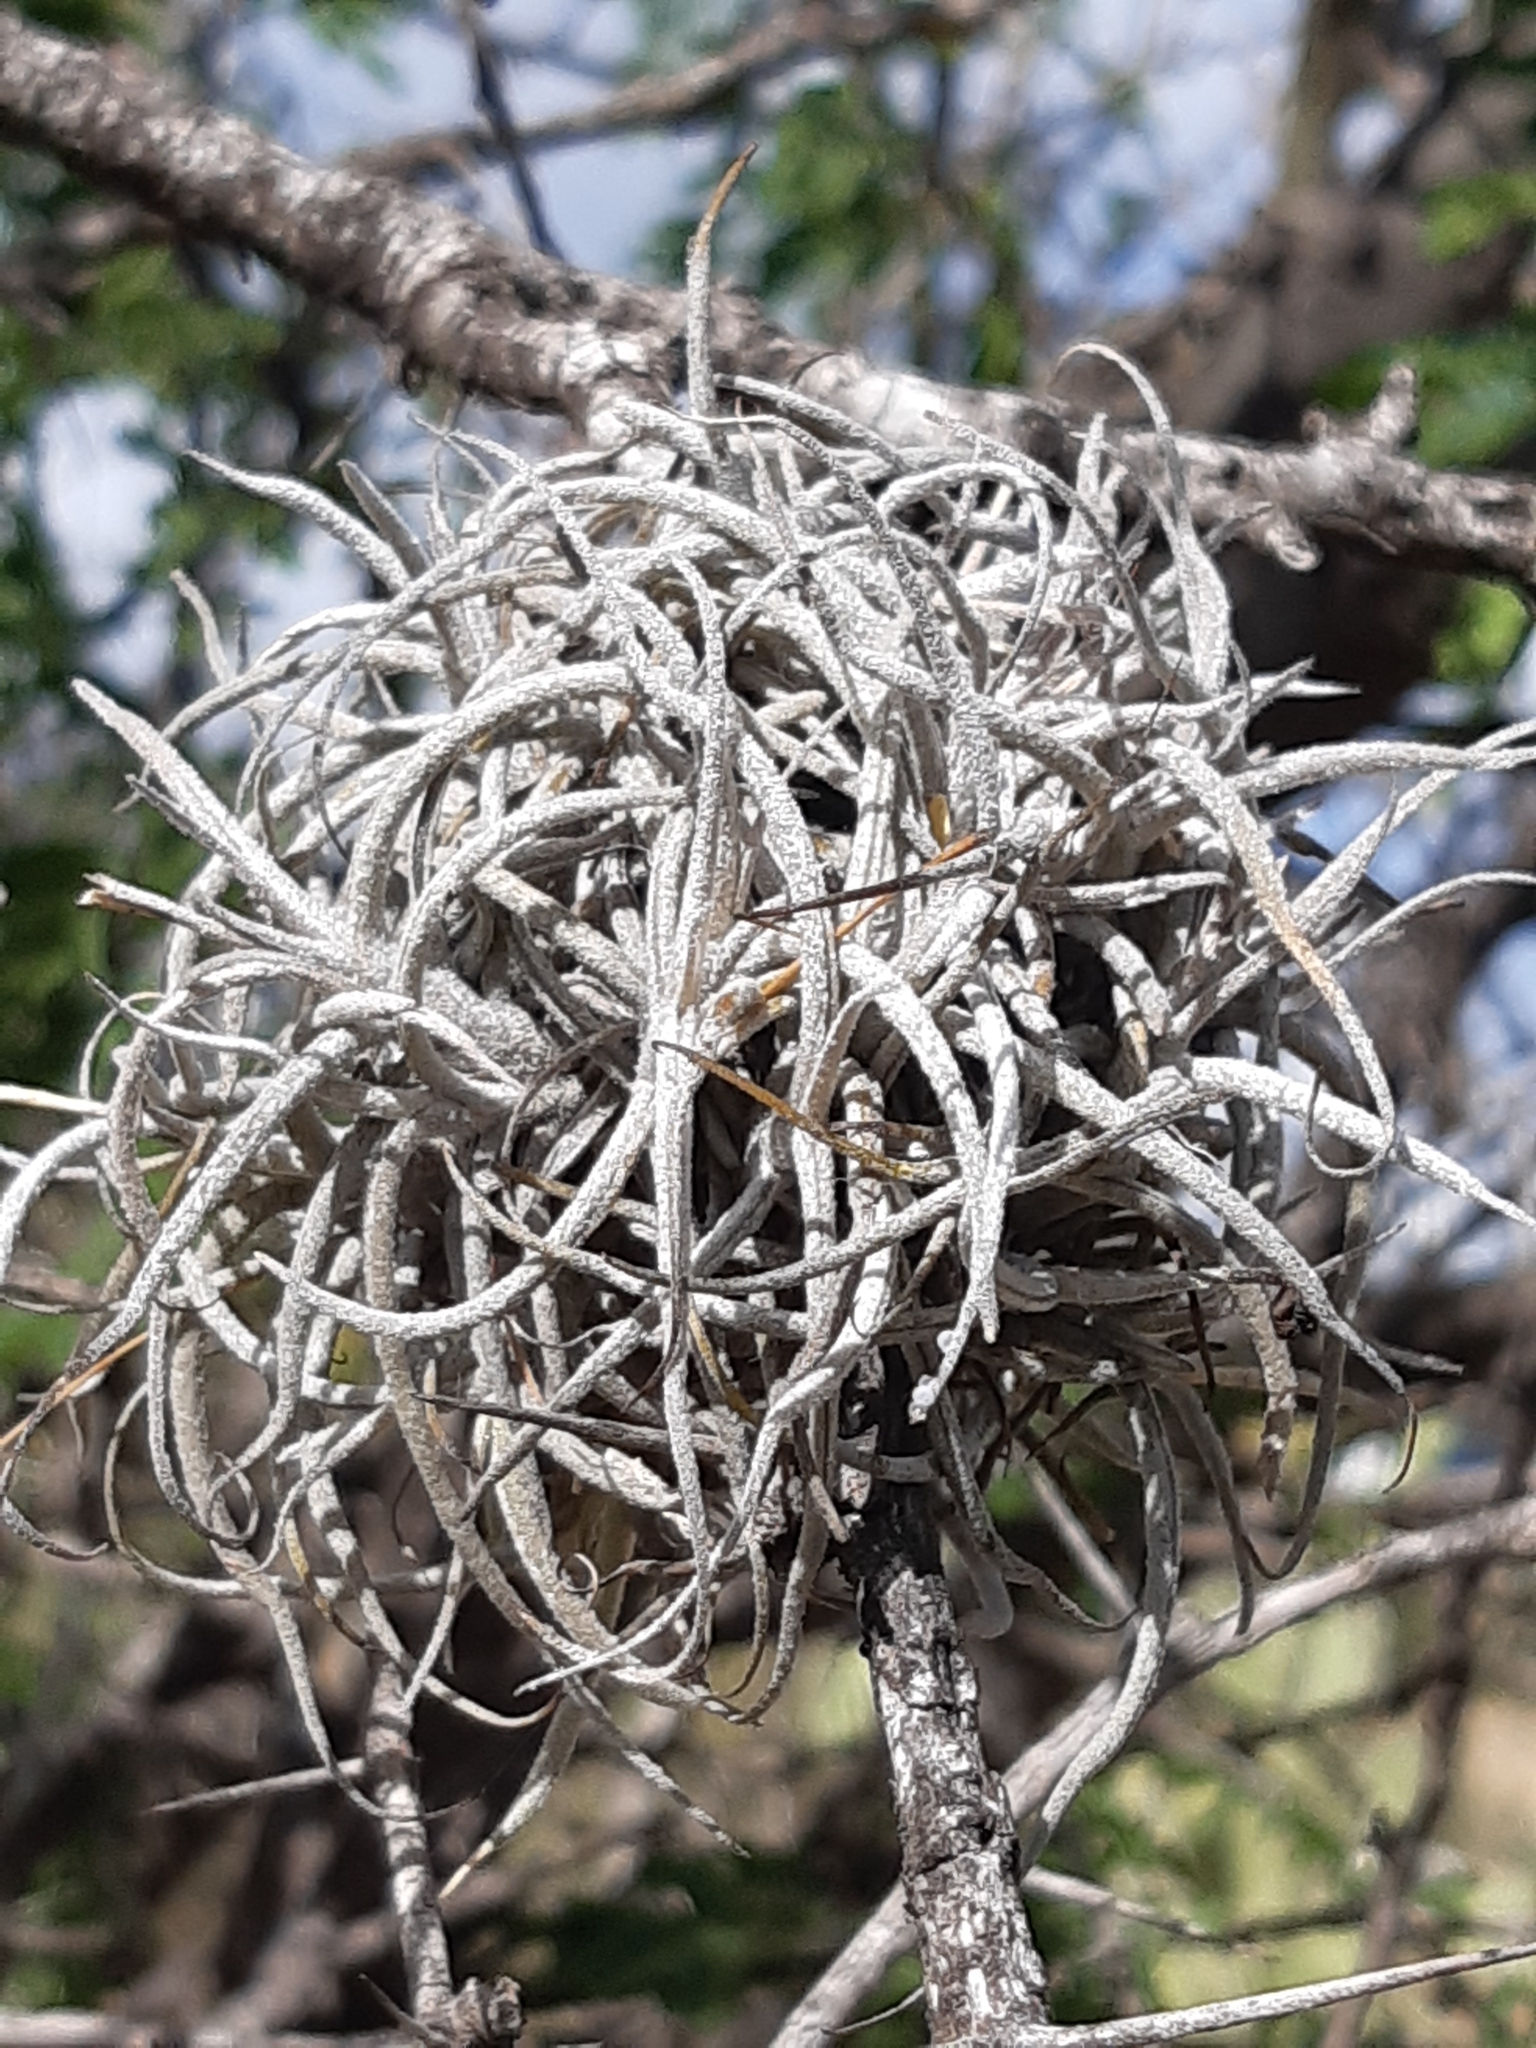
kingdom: Plantae
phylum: Tracheophyta
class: Liliopsida
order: Poales
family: Bromeliaceae
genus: Tillandsia
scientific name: Tillandsia recurvata
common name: Small ballmoss
